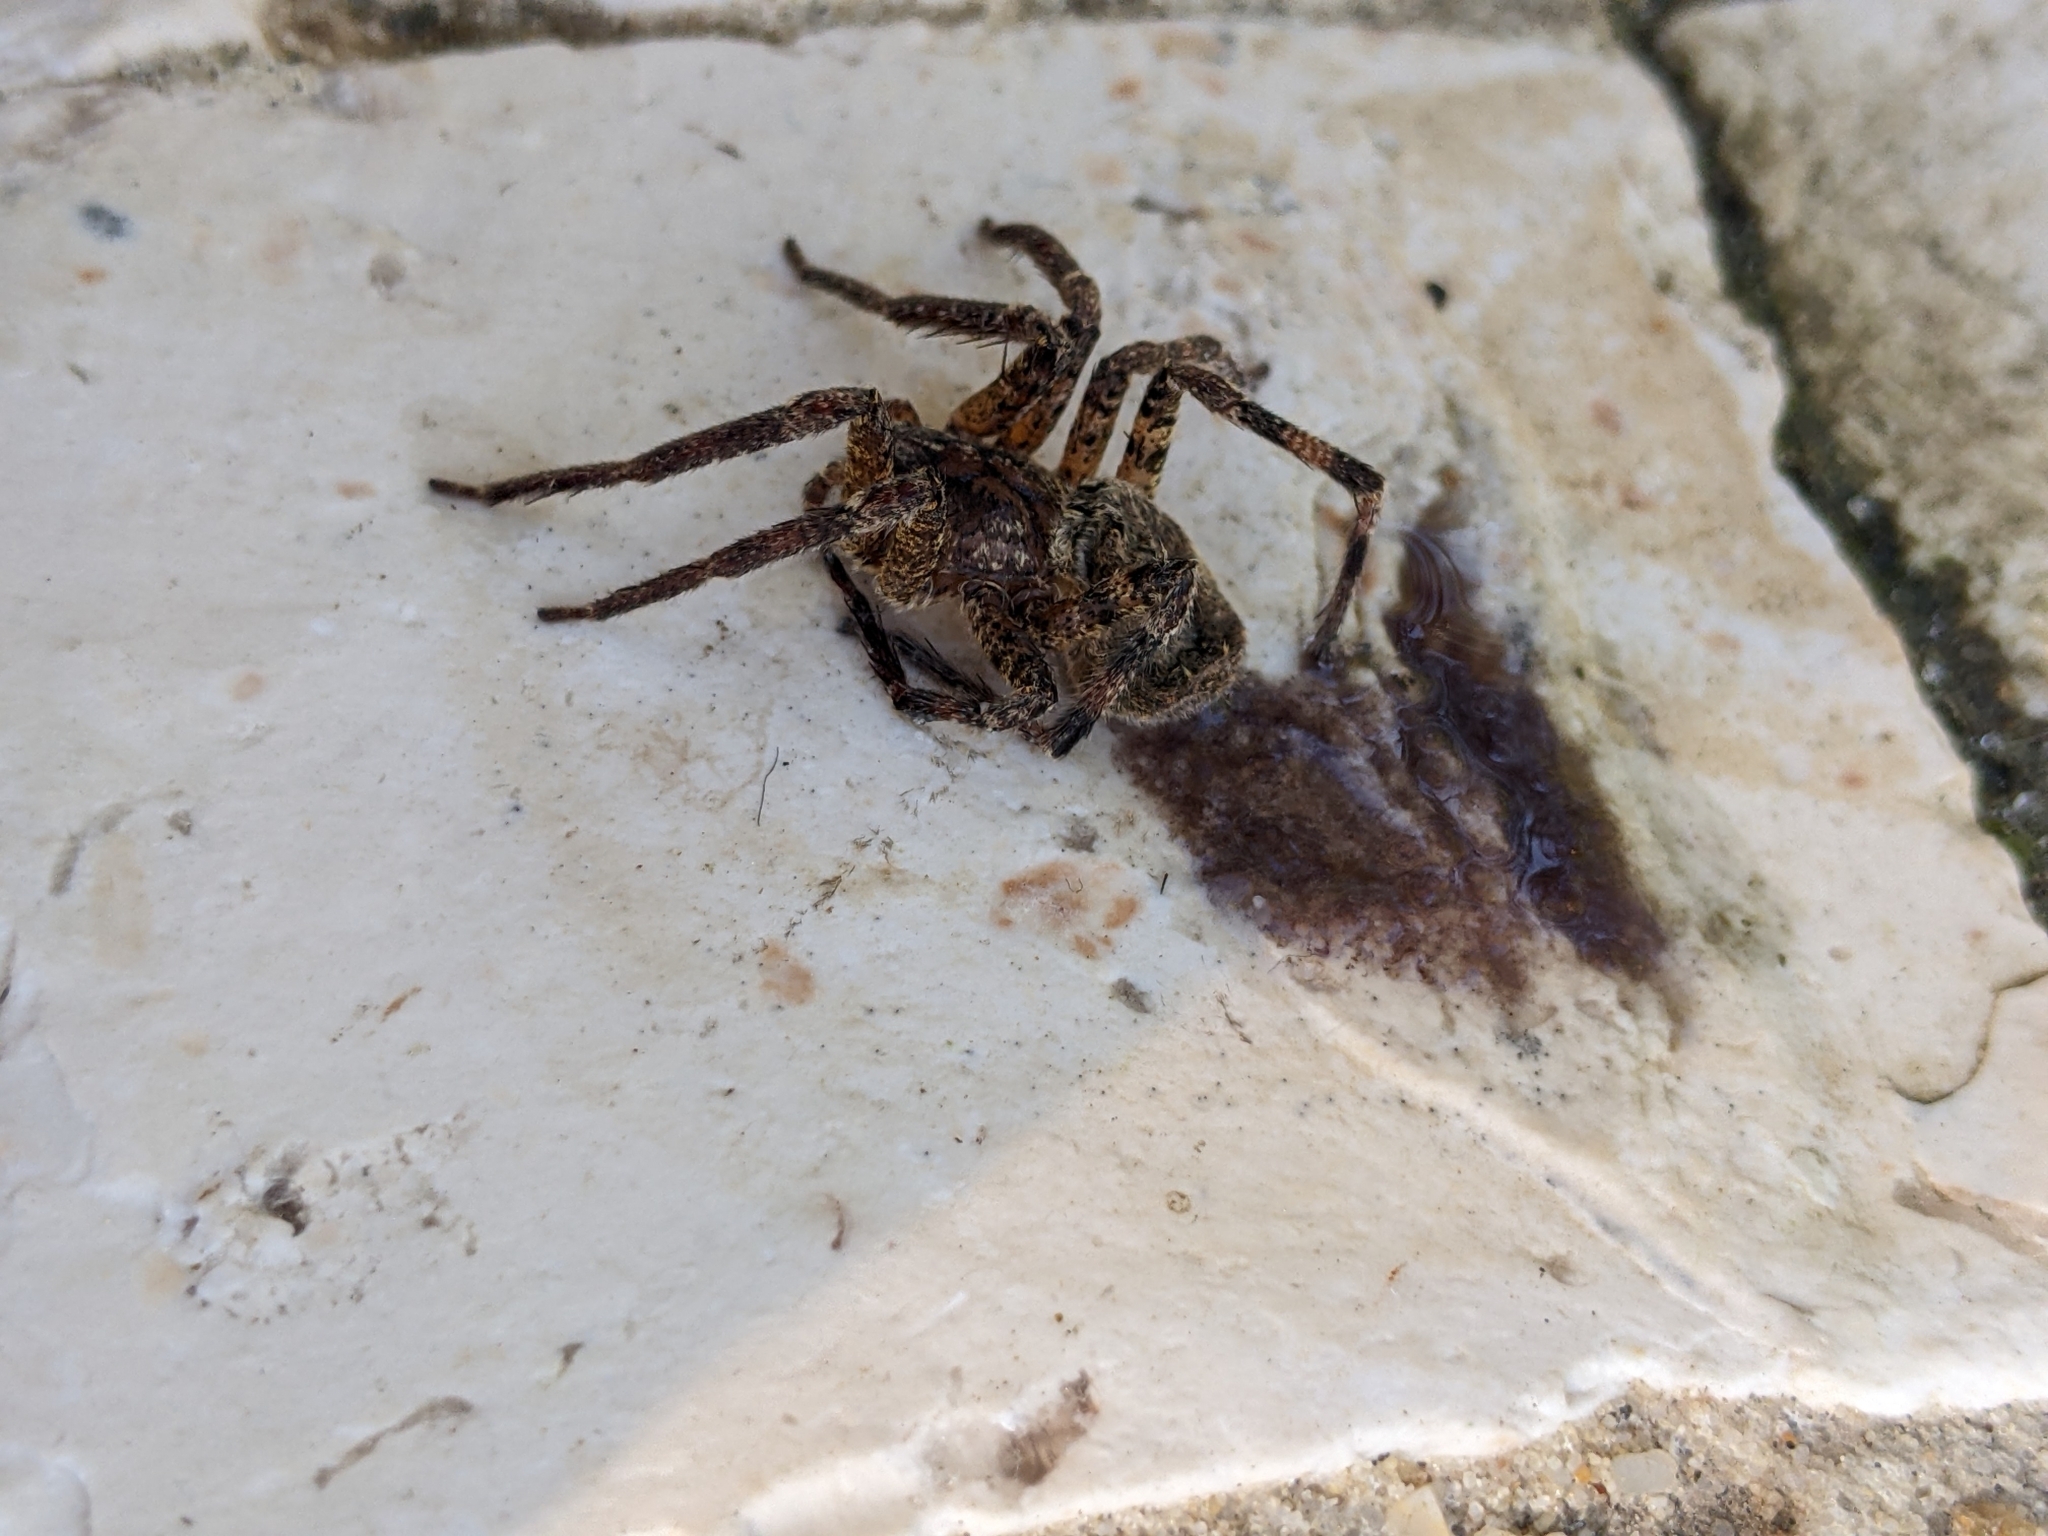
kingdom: Animalia
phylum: Arthropoda
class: Arachnida
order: Araneae
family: Zoropsidae
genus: Zoropsis
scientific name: Zoropsis spinimana
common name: Zoropsid spider
